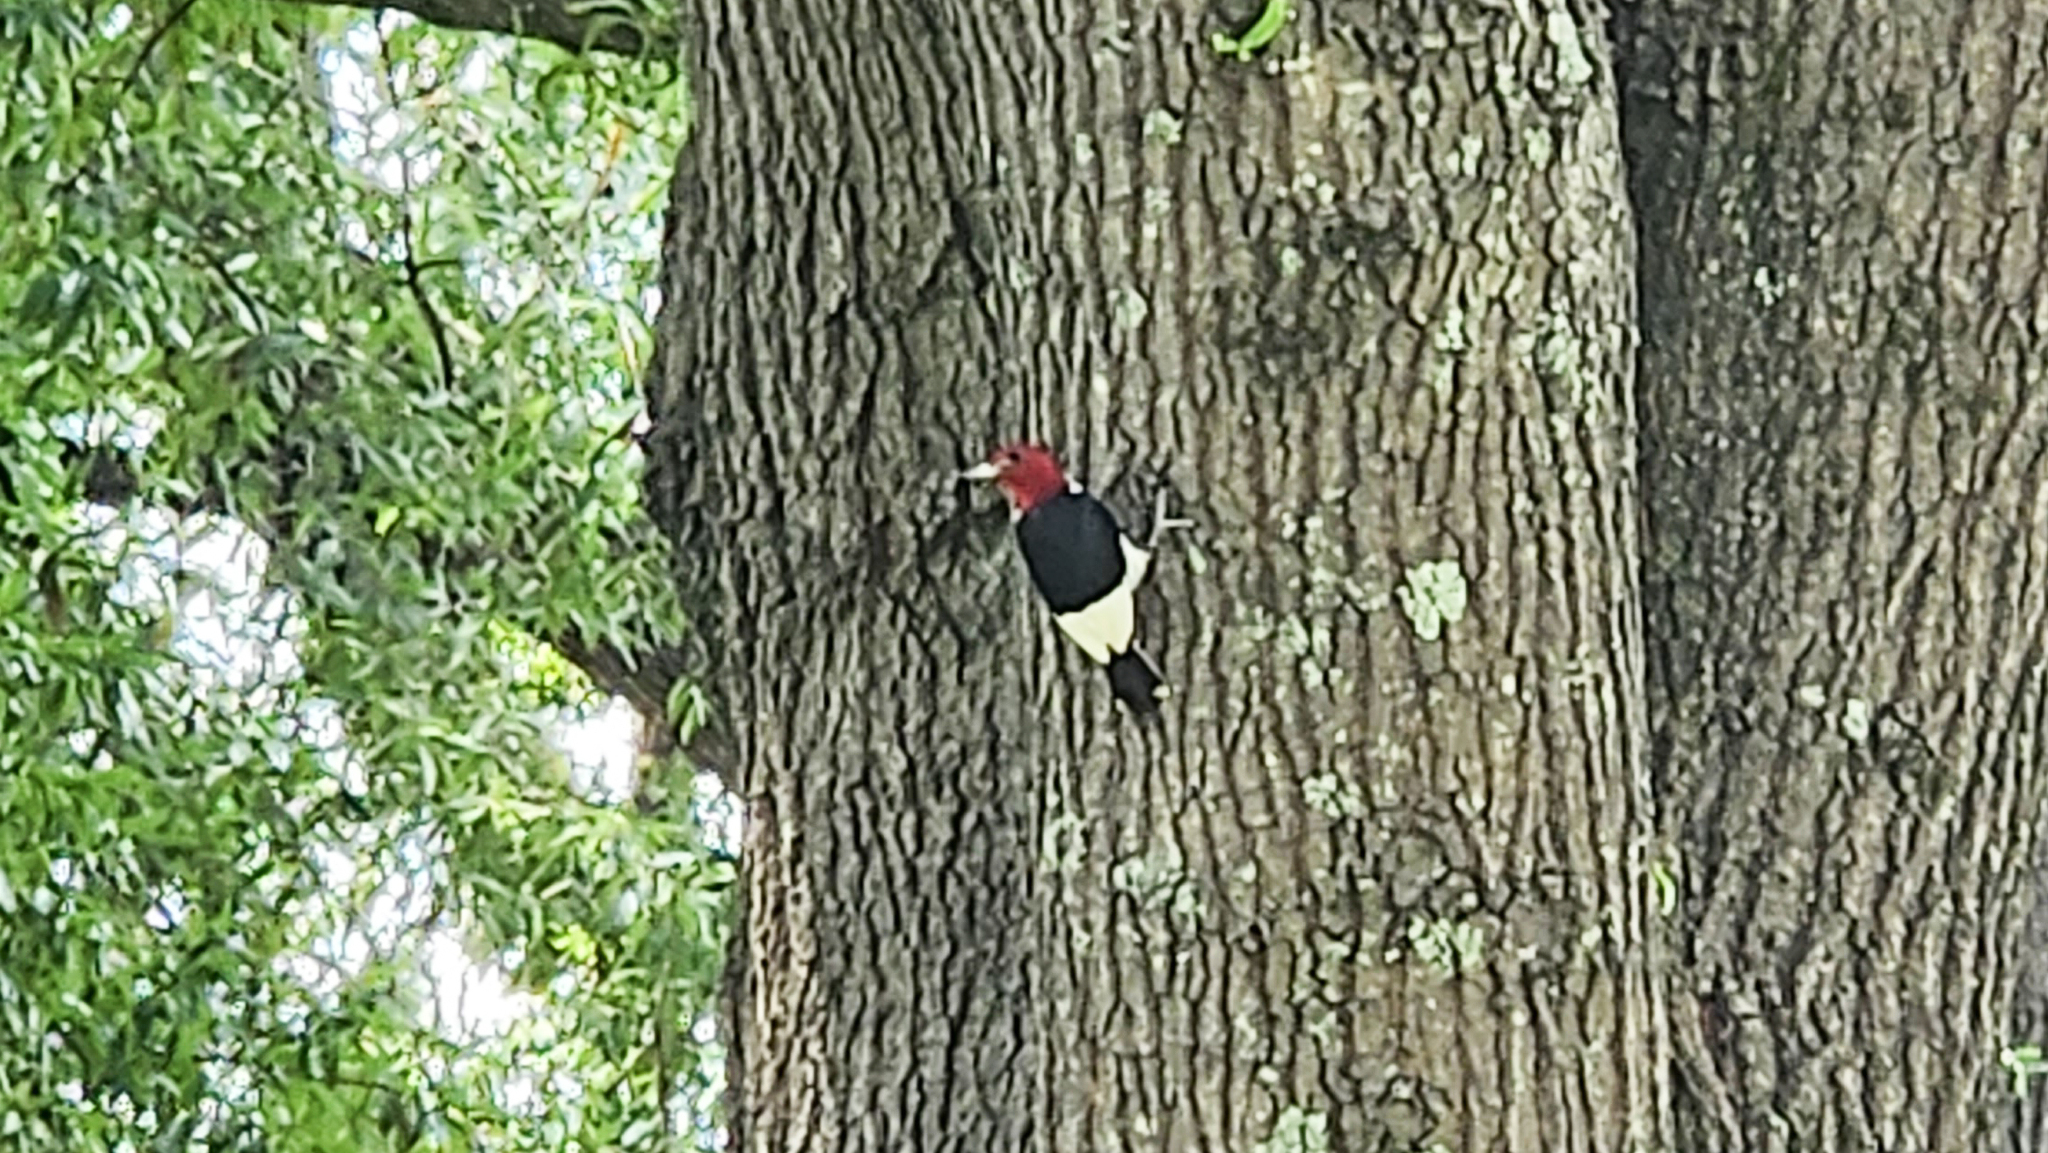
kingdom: Animalia
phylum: Chordata
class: Aves
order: Piciformes
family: Picidae
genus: Melanerpes
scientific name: Melanerpes erythrocephalus
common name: Red-headed woodpecker
